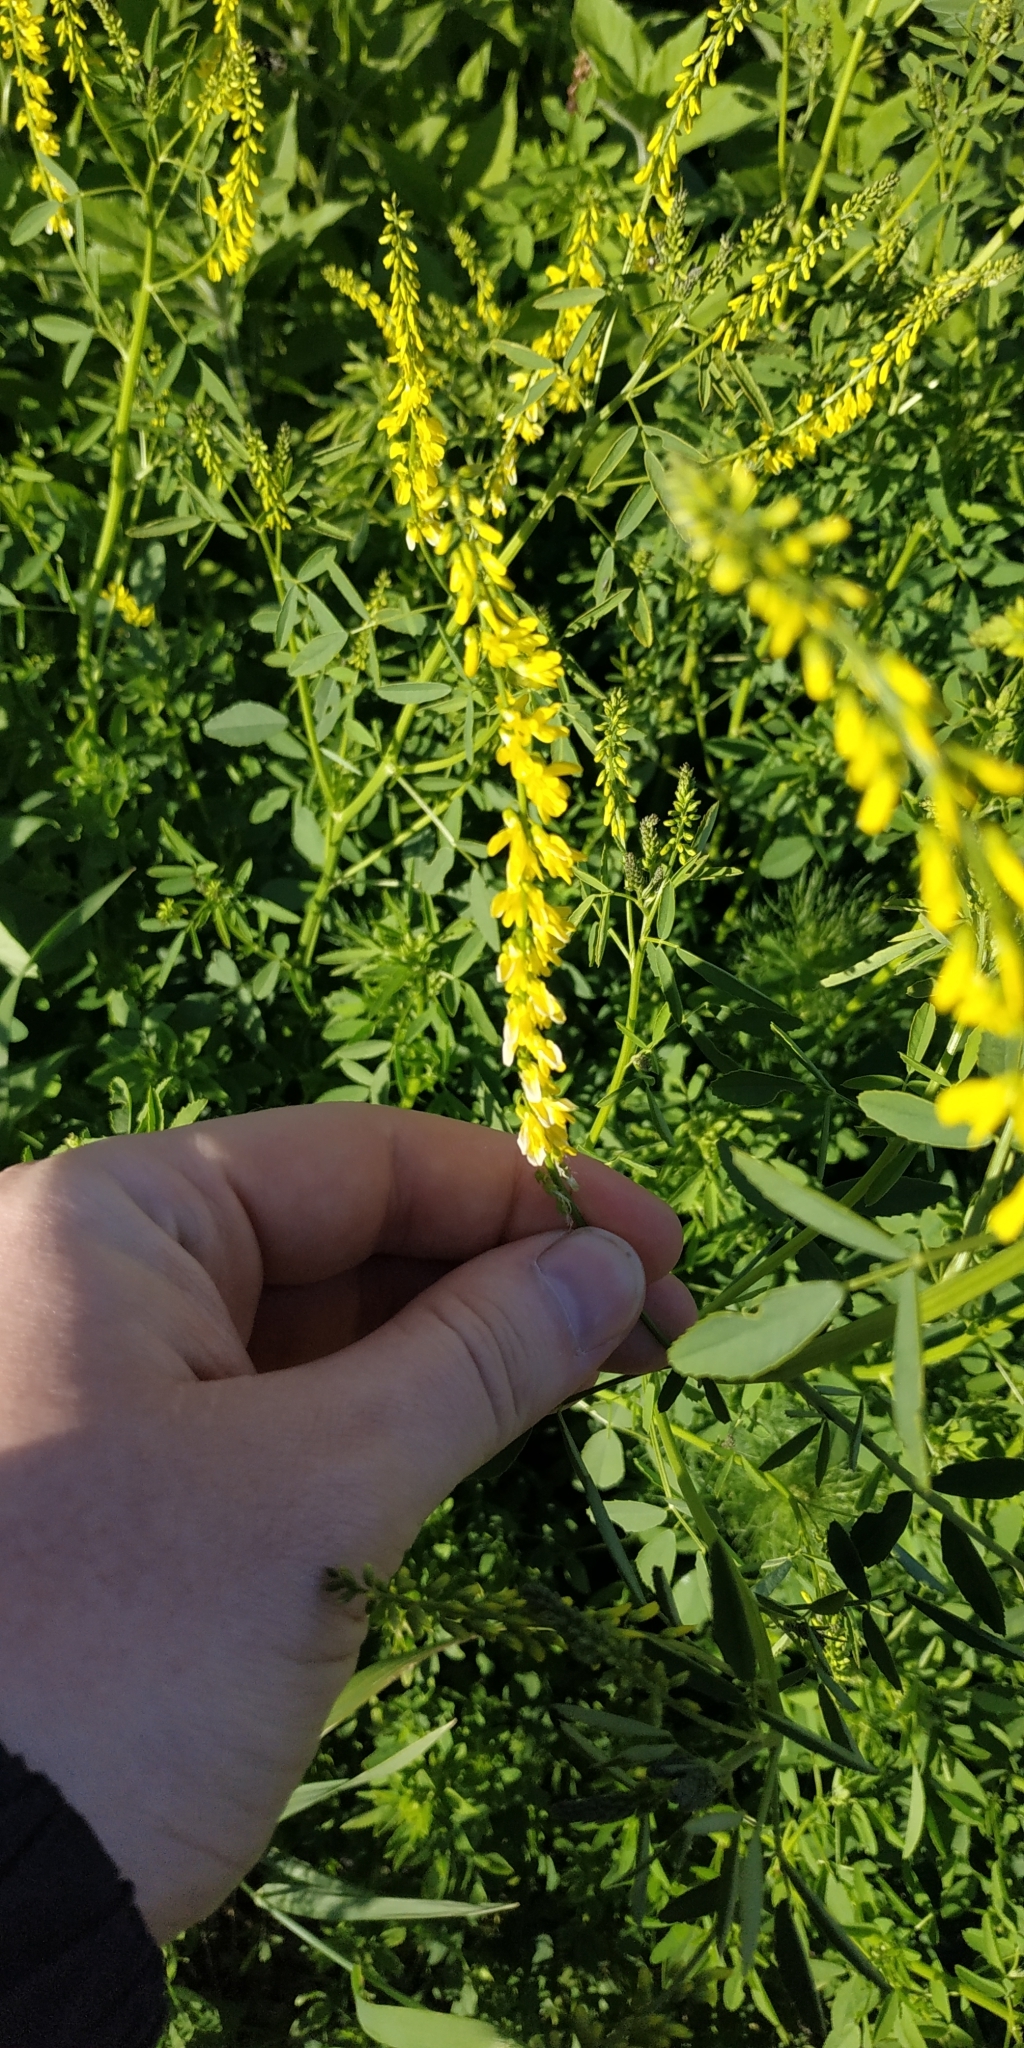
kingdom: Plantae
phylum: Tracheophyta
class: Magnoliopsida
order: Fabales
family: Fabaceae
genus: Melilotus
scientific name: Melilotus officinalis
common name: Sweetclover
